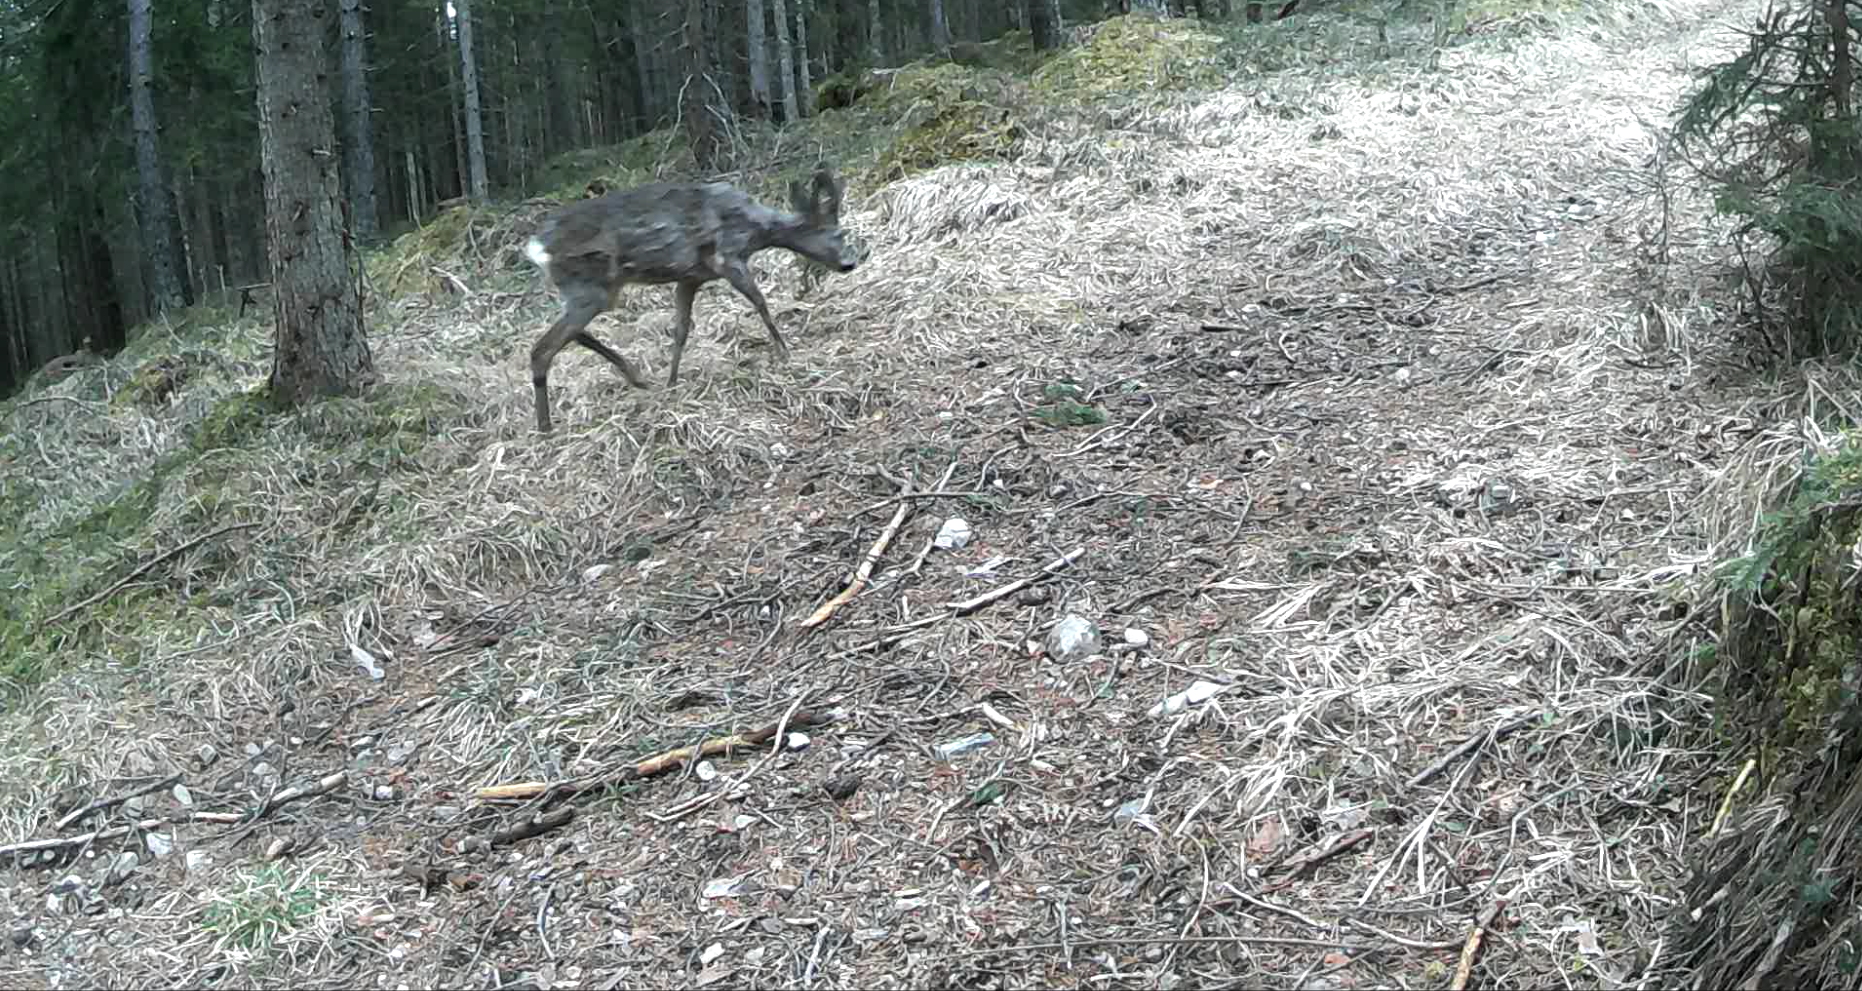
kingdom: Animalia
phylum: Chordata
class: Mammalia
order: Artiodactyla
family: Cervidae
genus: Capreolus
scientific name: Capreolus capreolus
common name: Western roe deer
